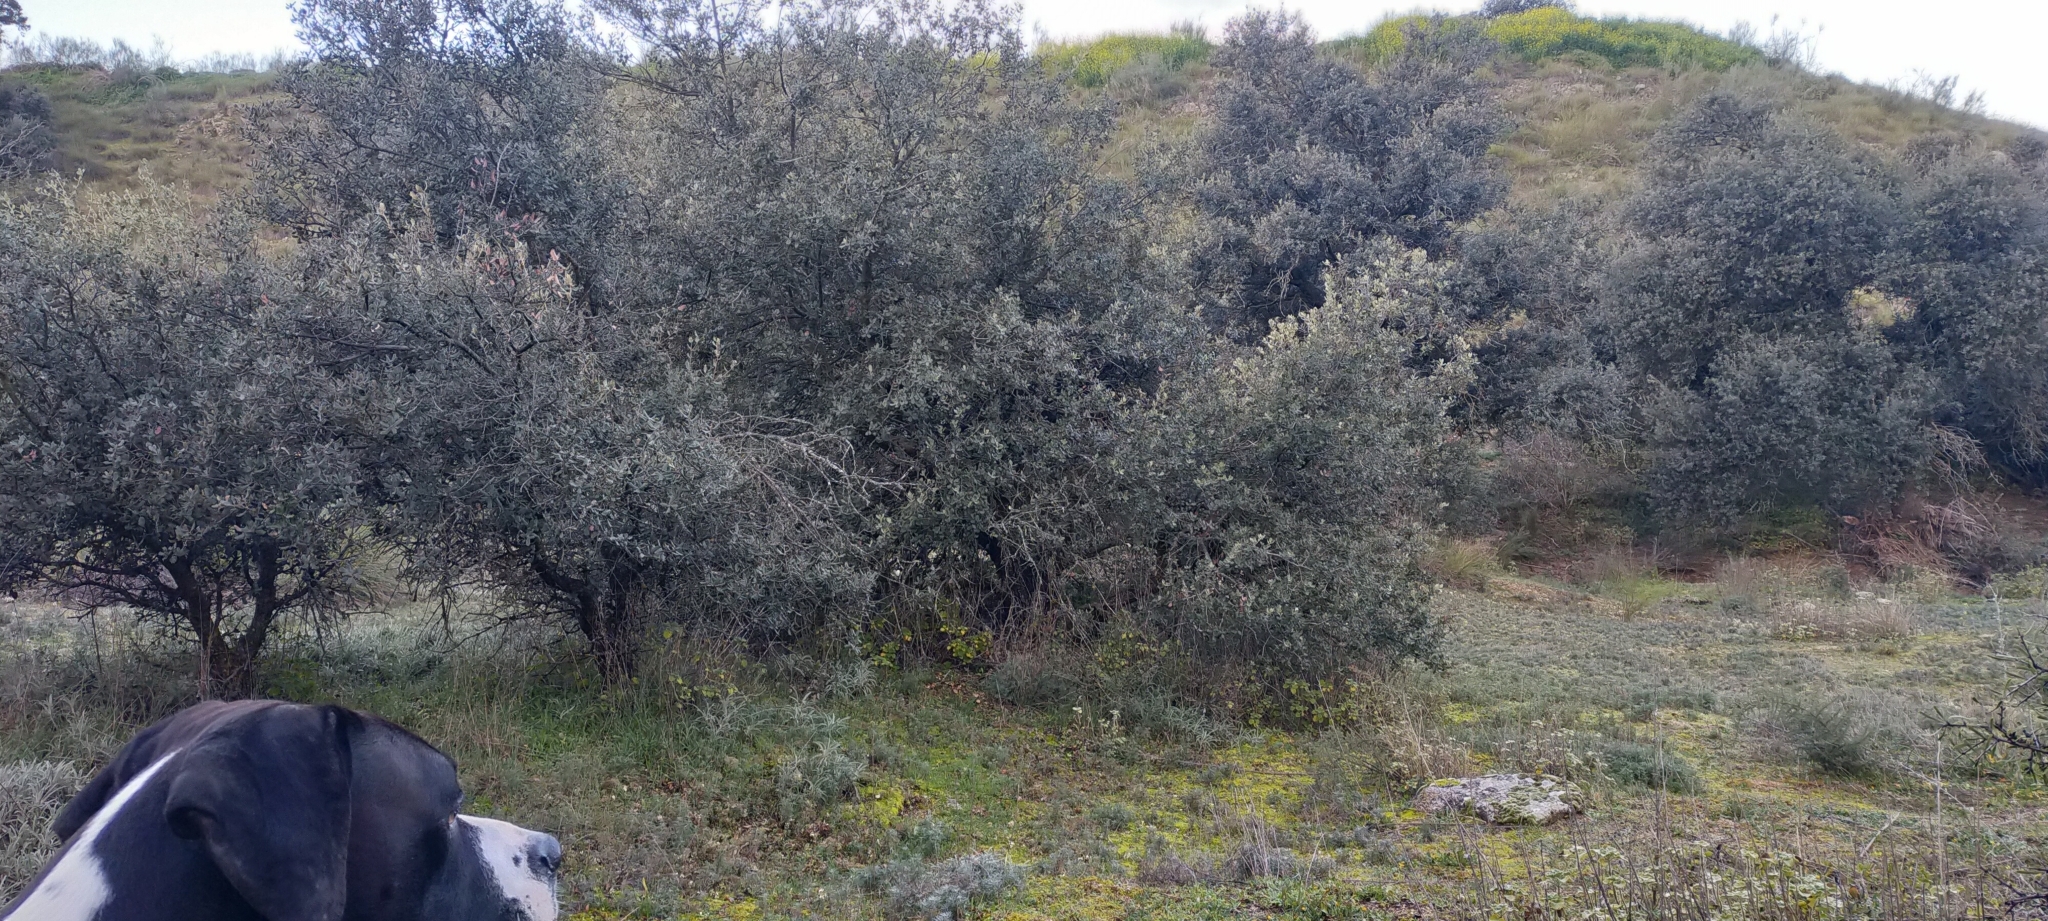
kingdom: Plantae
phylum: Tracheophyta
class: Magnoliopsida
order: Fagales
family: Fagaceae
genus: Quercus
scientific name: Quercus rotundifolia
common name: Holm oak
